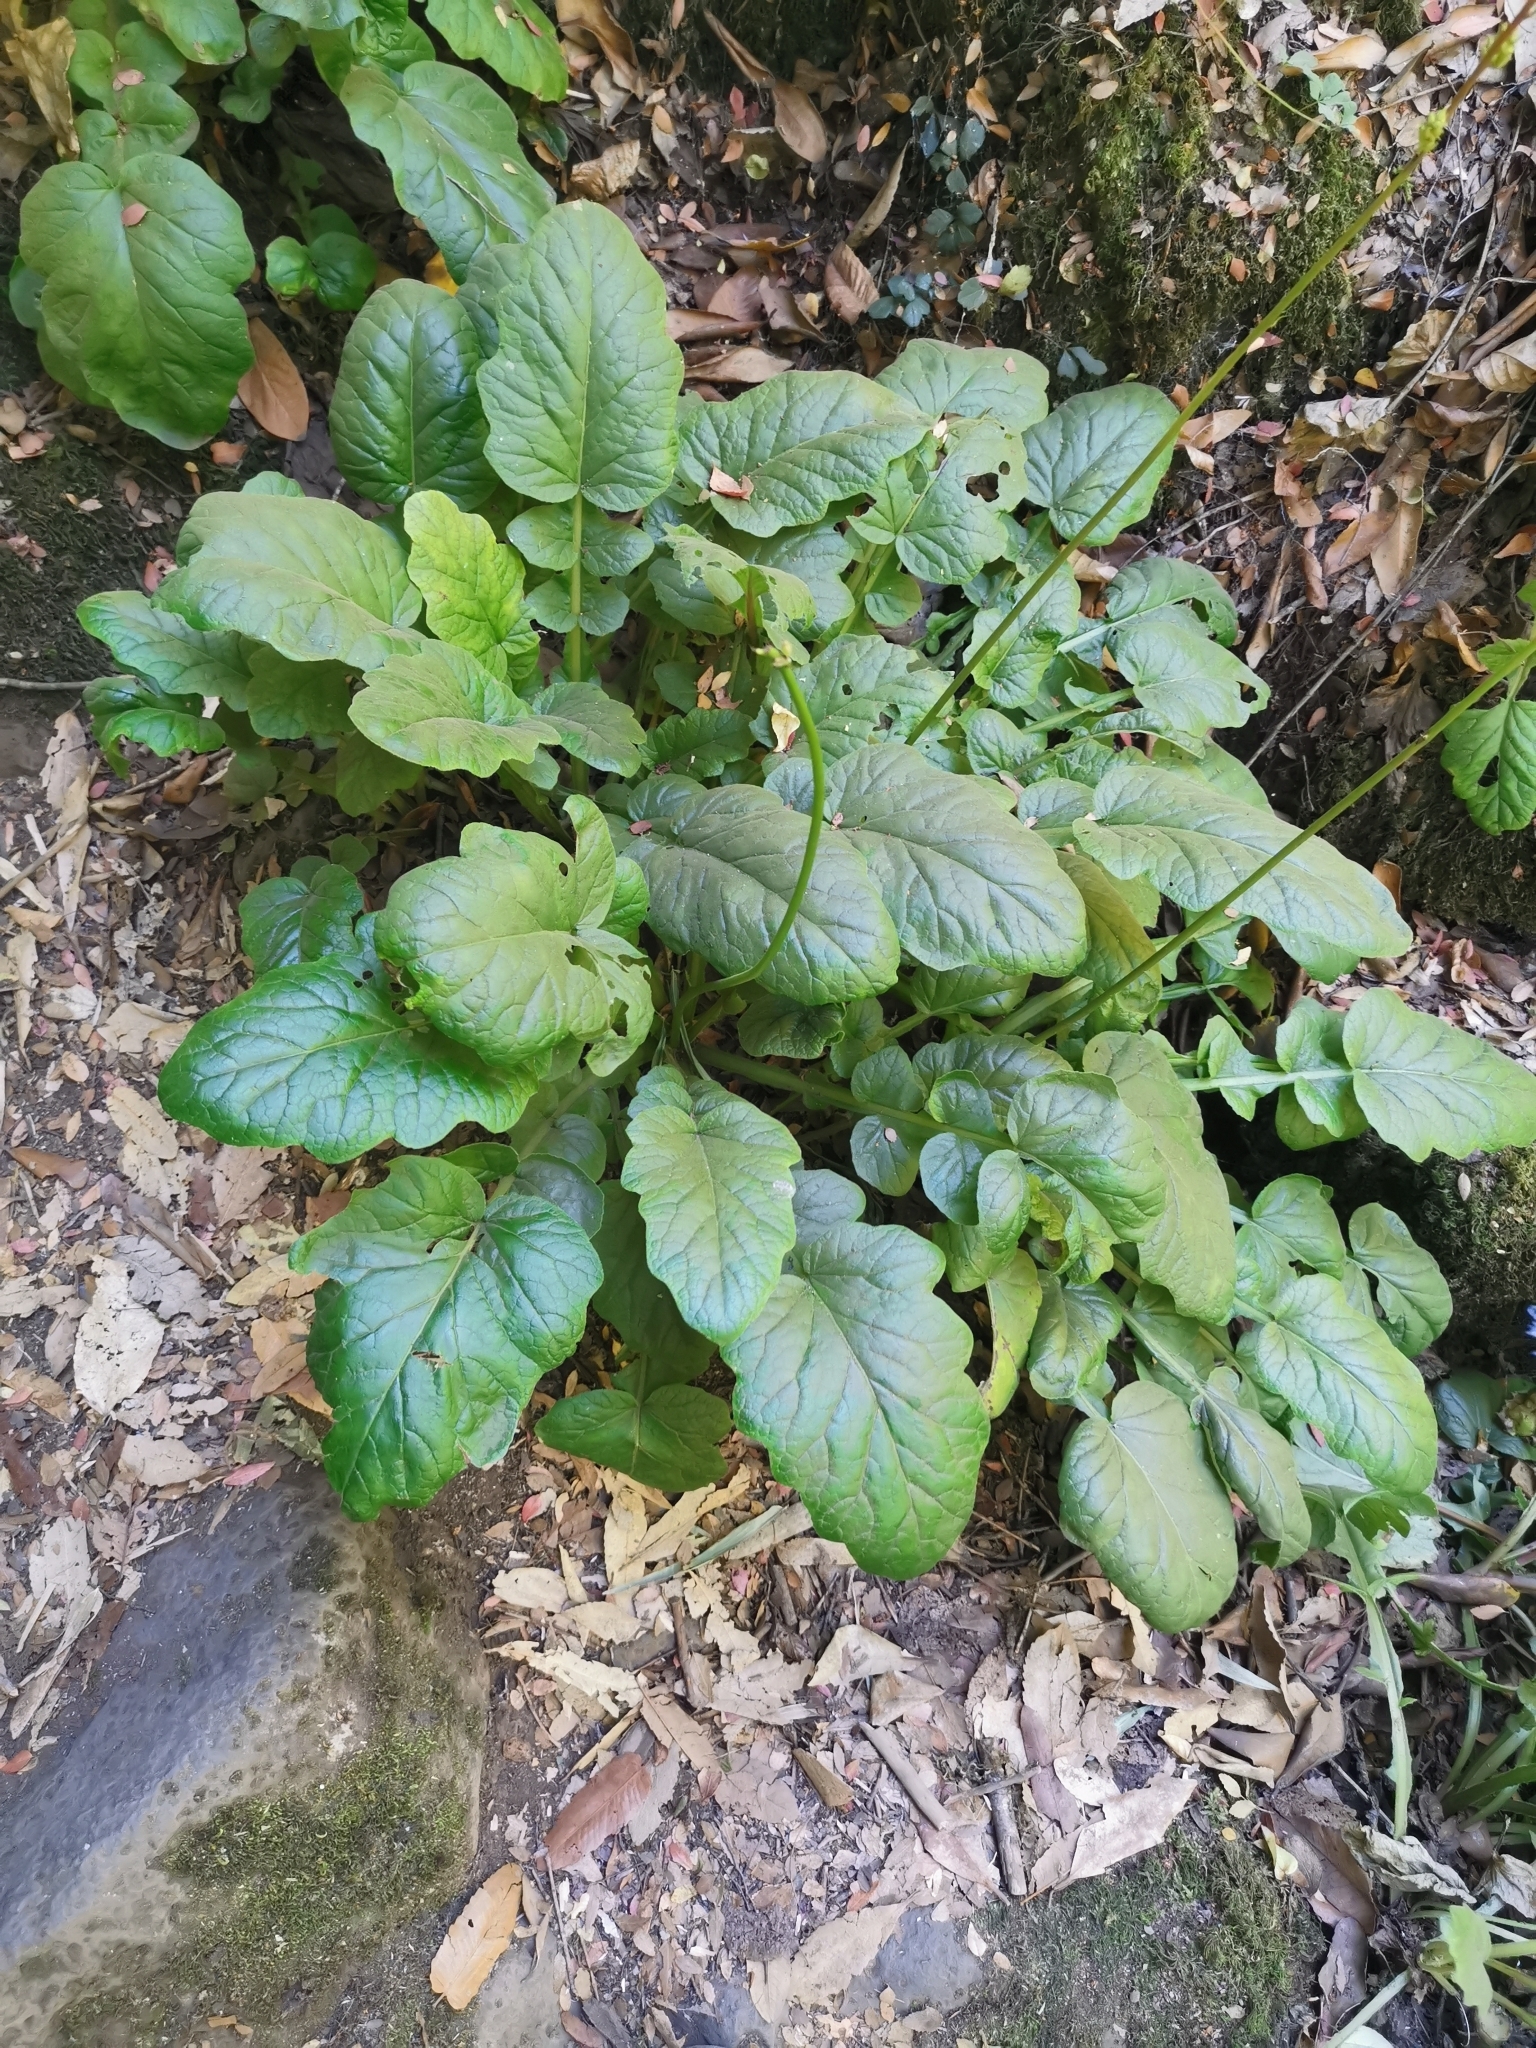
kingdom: Plantae
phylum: Tracheophyta
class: Magnoliopsida
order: Geraniales
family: Francoaceae
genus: Francoa
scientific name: Francoa appendiculata
